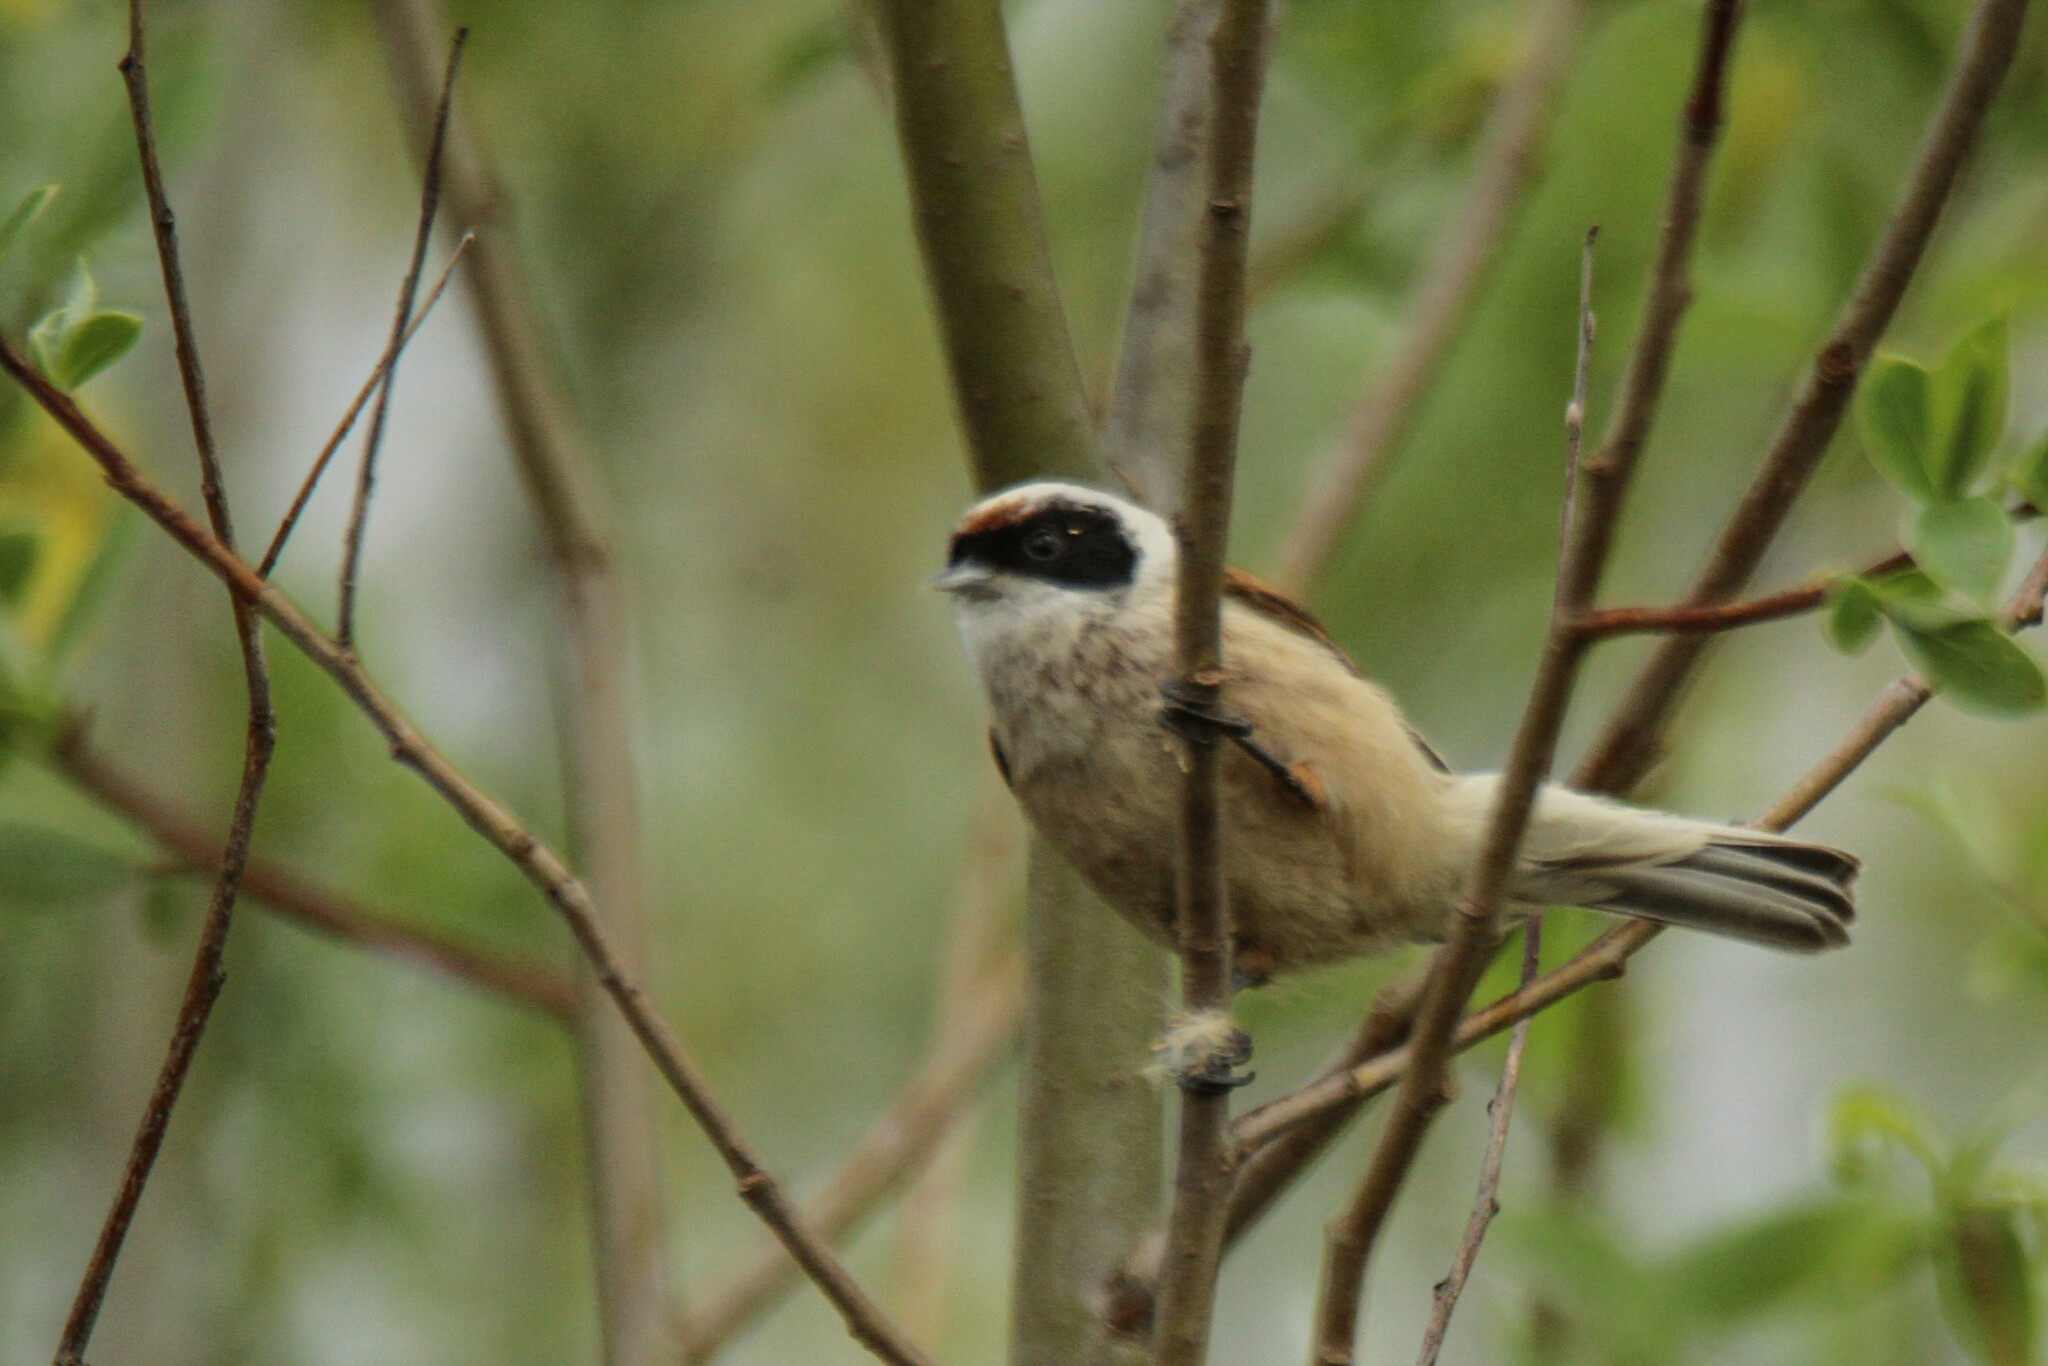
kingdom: Animalia
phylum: Chordata
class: Aves
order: Passeriformes
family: Remizidae
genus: Remiz
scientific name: Remiz pendulinus
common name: Eurasian penduline tit
